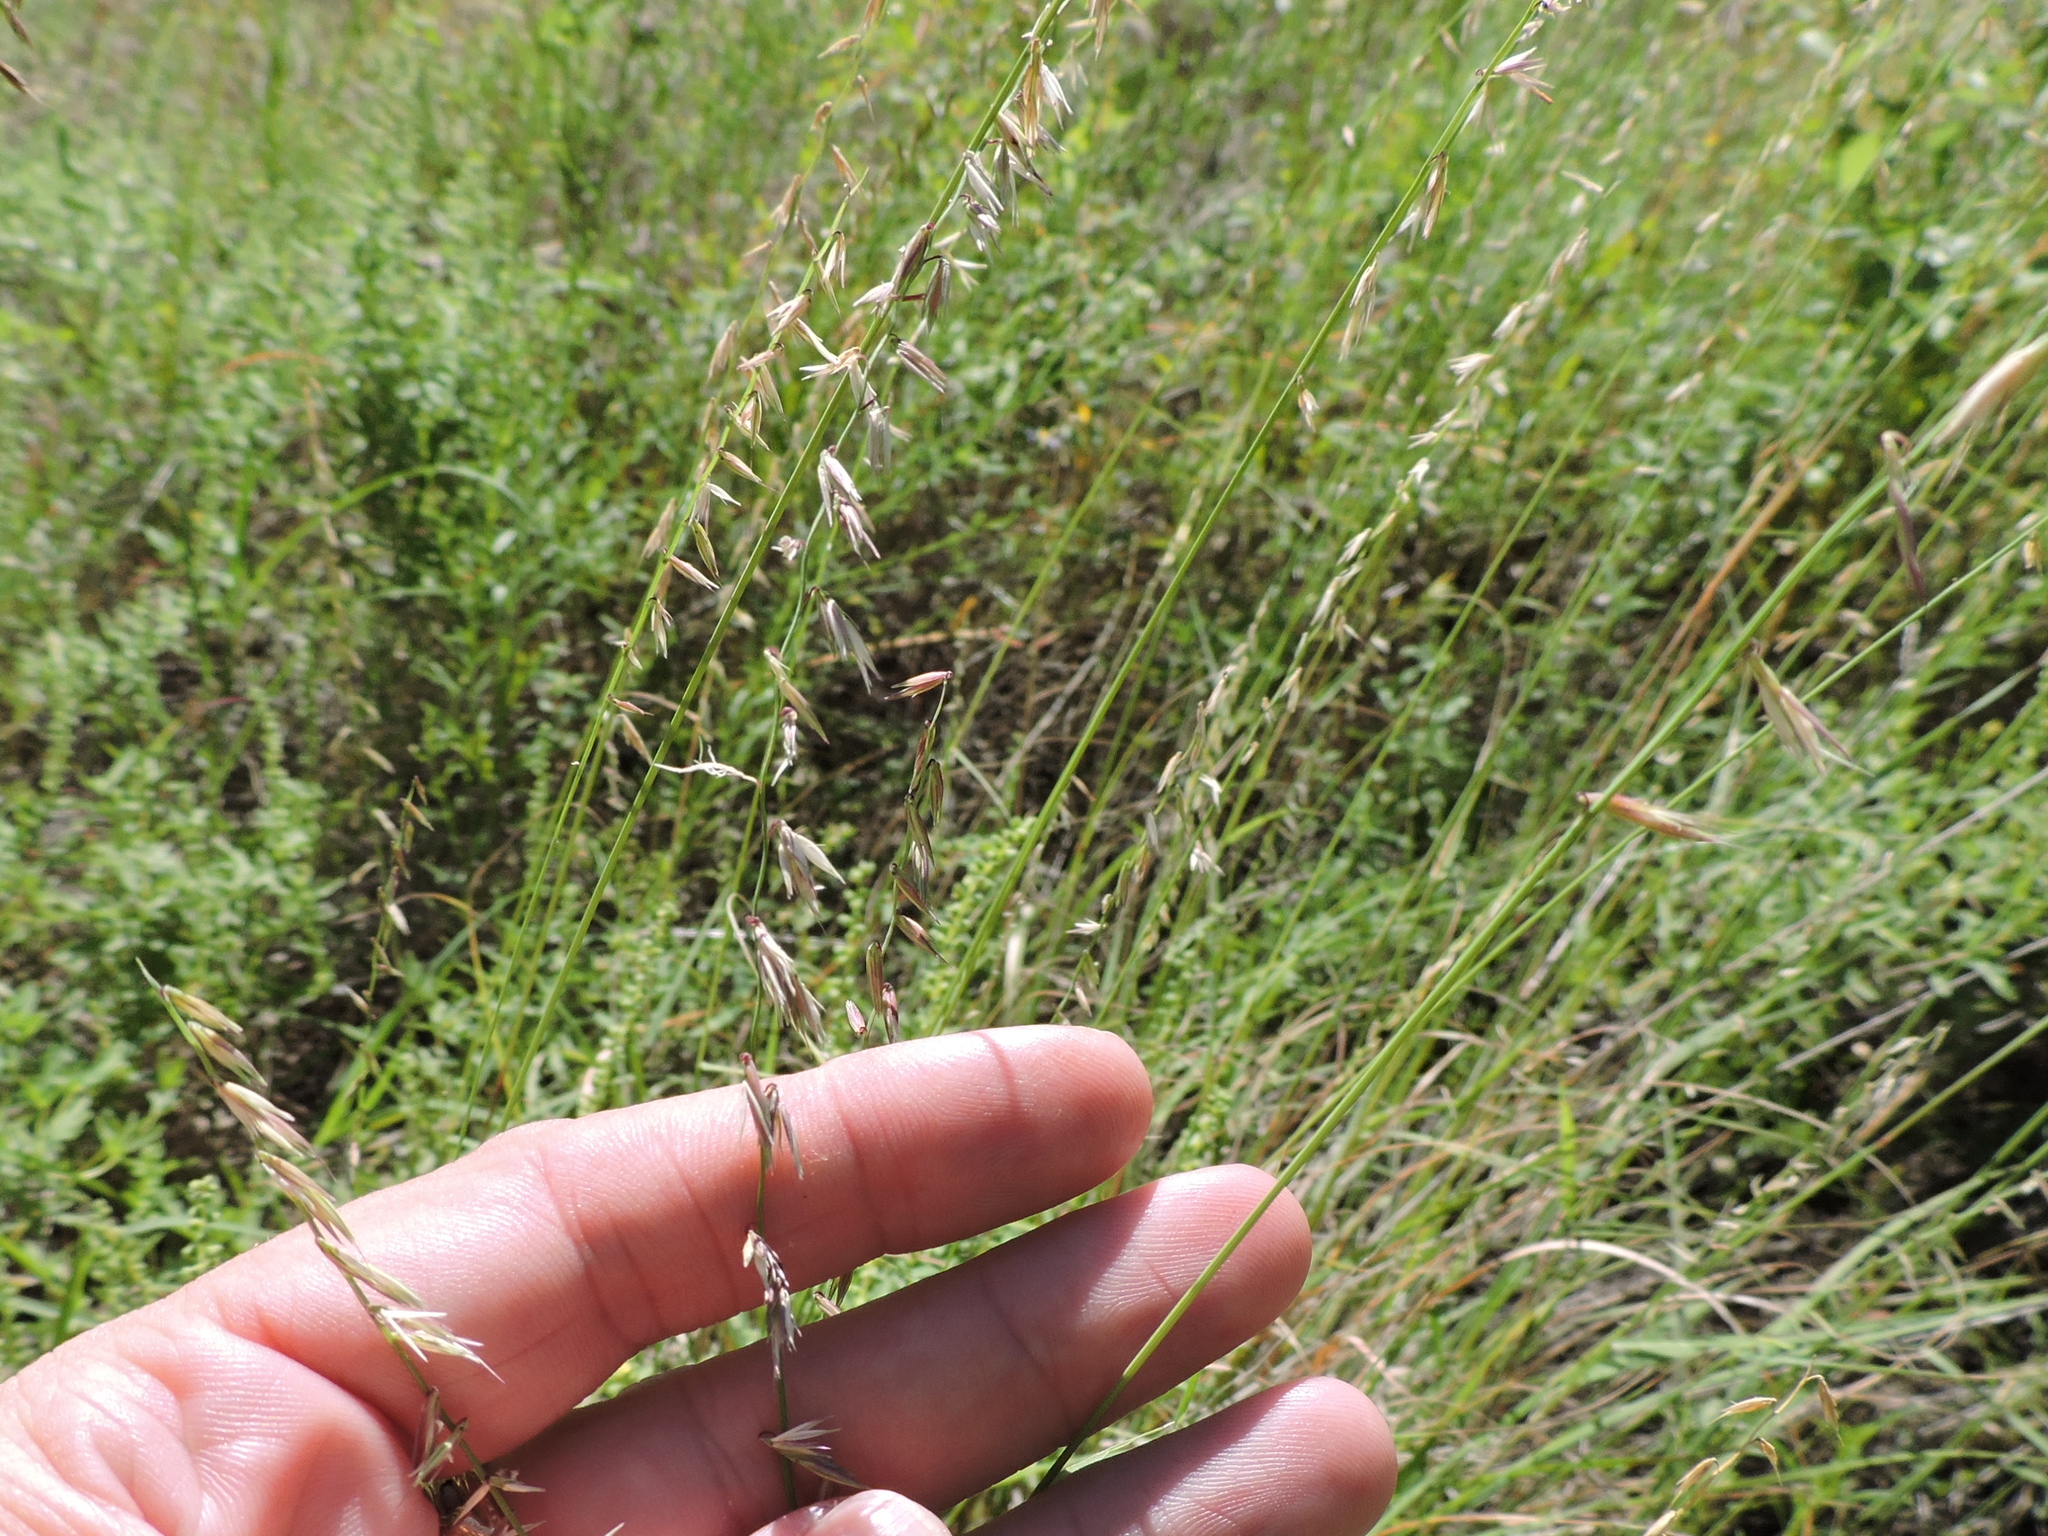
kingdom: Plantae
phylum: Tracheophyta
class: Liliopsida
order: Poales
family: Poaceae
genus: Bouteloua
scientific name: Bouteloua curtipendula
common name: Side-oats grama
